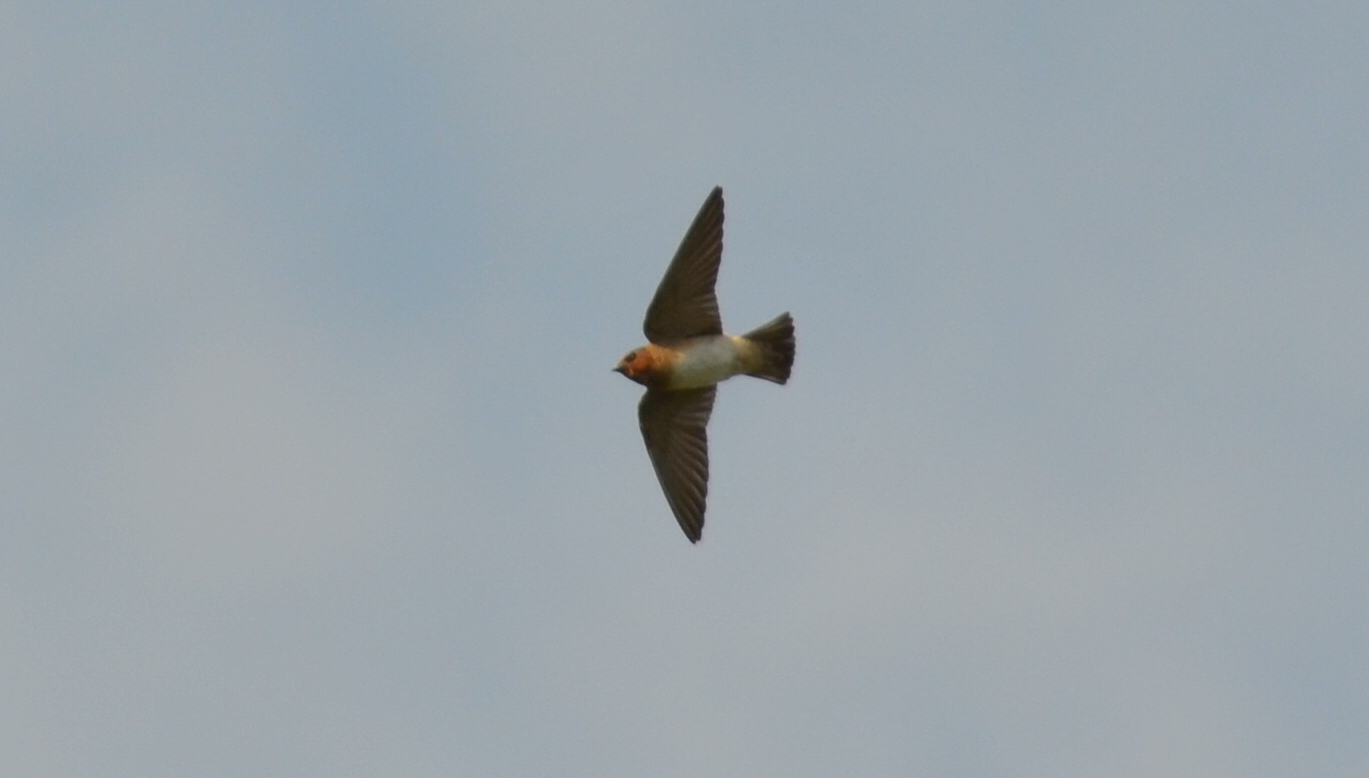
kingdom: Animalia
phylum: Chordata
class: Aves
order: Passeriformes
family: Hirundinidae
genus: Petrochelidon
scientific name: Petrochelidon fulva
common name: Cave swallow
